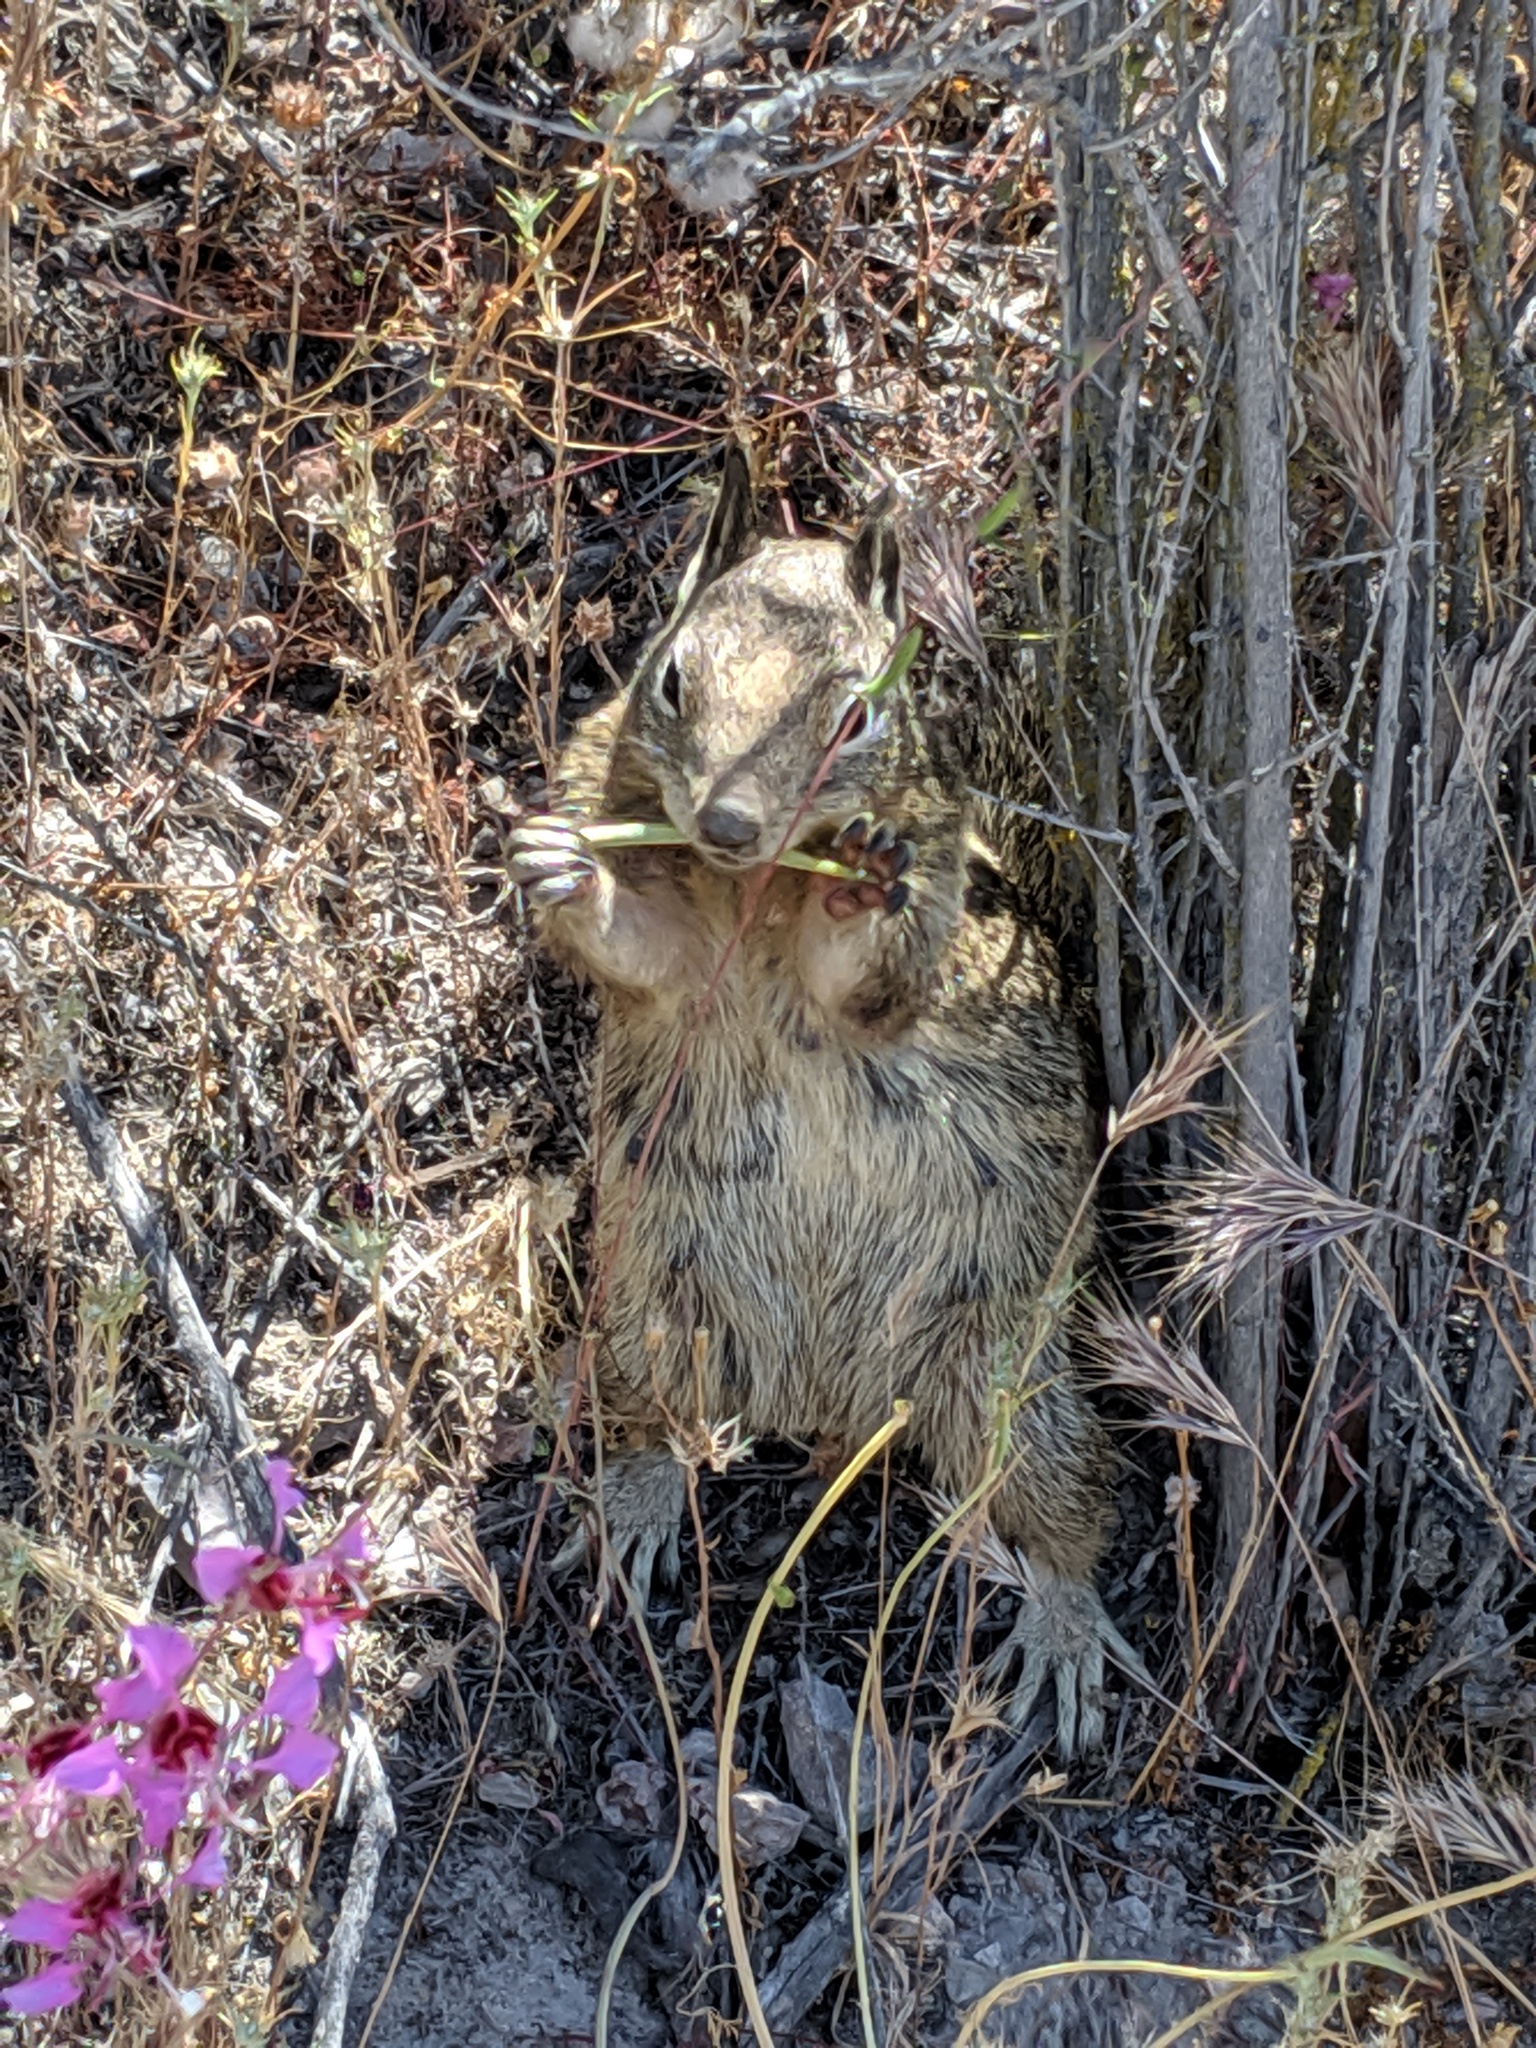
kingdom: Animalia
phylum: Chordata
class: Mammalia
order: Rodentia
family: Sciuridae
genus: Otospermophilus
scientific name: Otospermophilus beecheyi
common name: California ground squirrel
